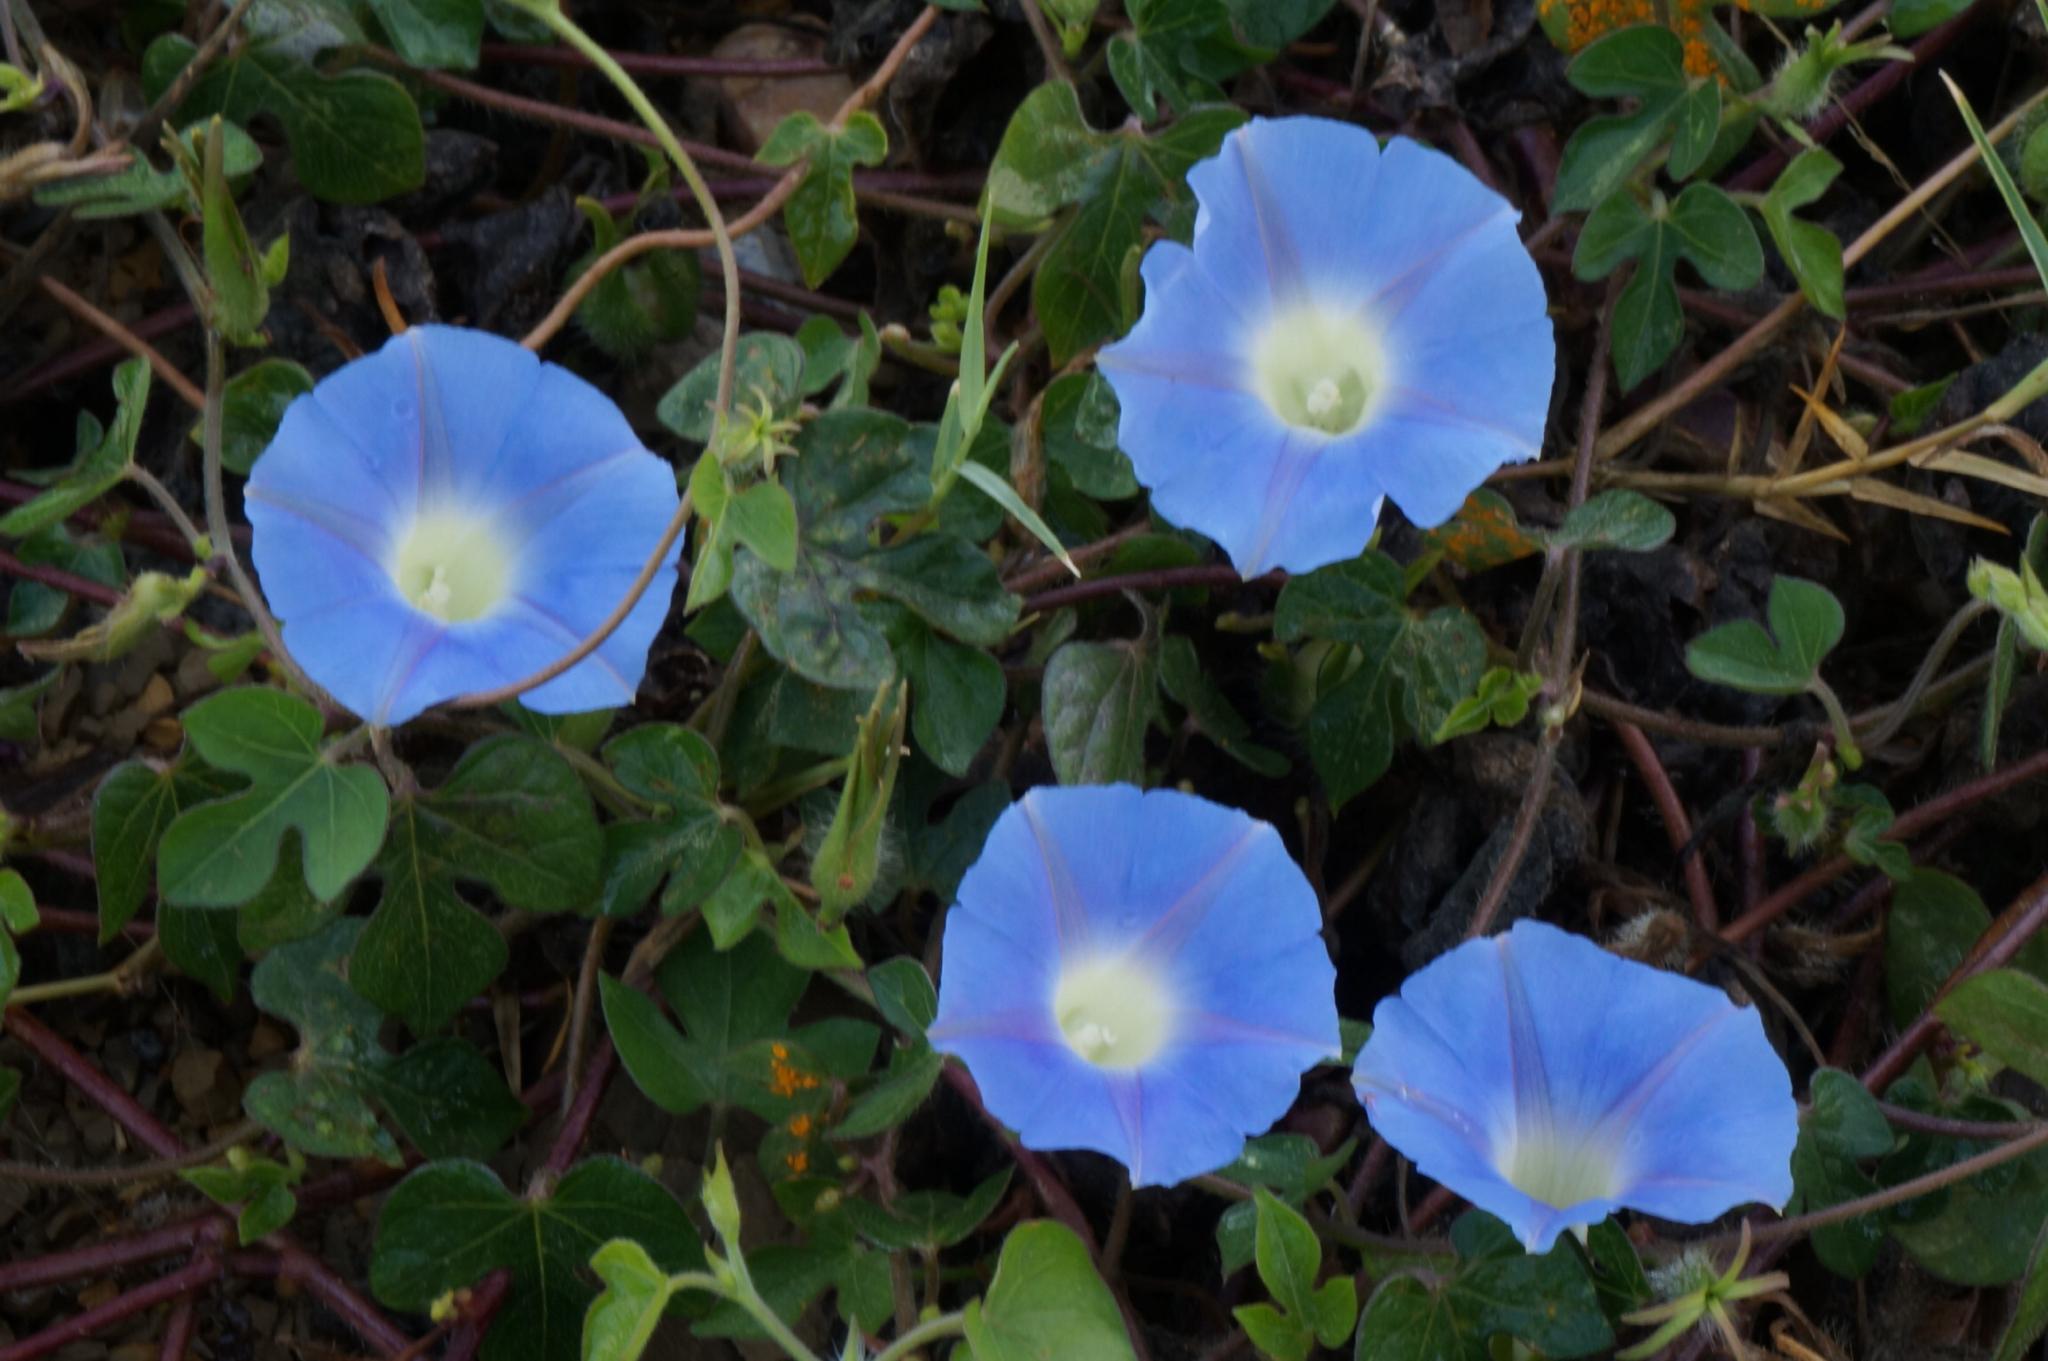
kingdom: Plantae
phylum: Tracheophyta
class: Magnoliopsida
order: Solanales
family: Convolvulaceae
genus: Ipomoea
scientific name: Ipomoea hederacea
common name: Ivy-leaved morning-glory
